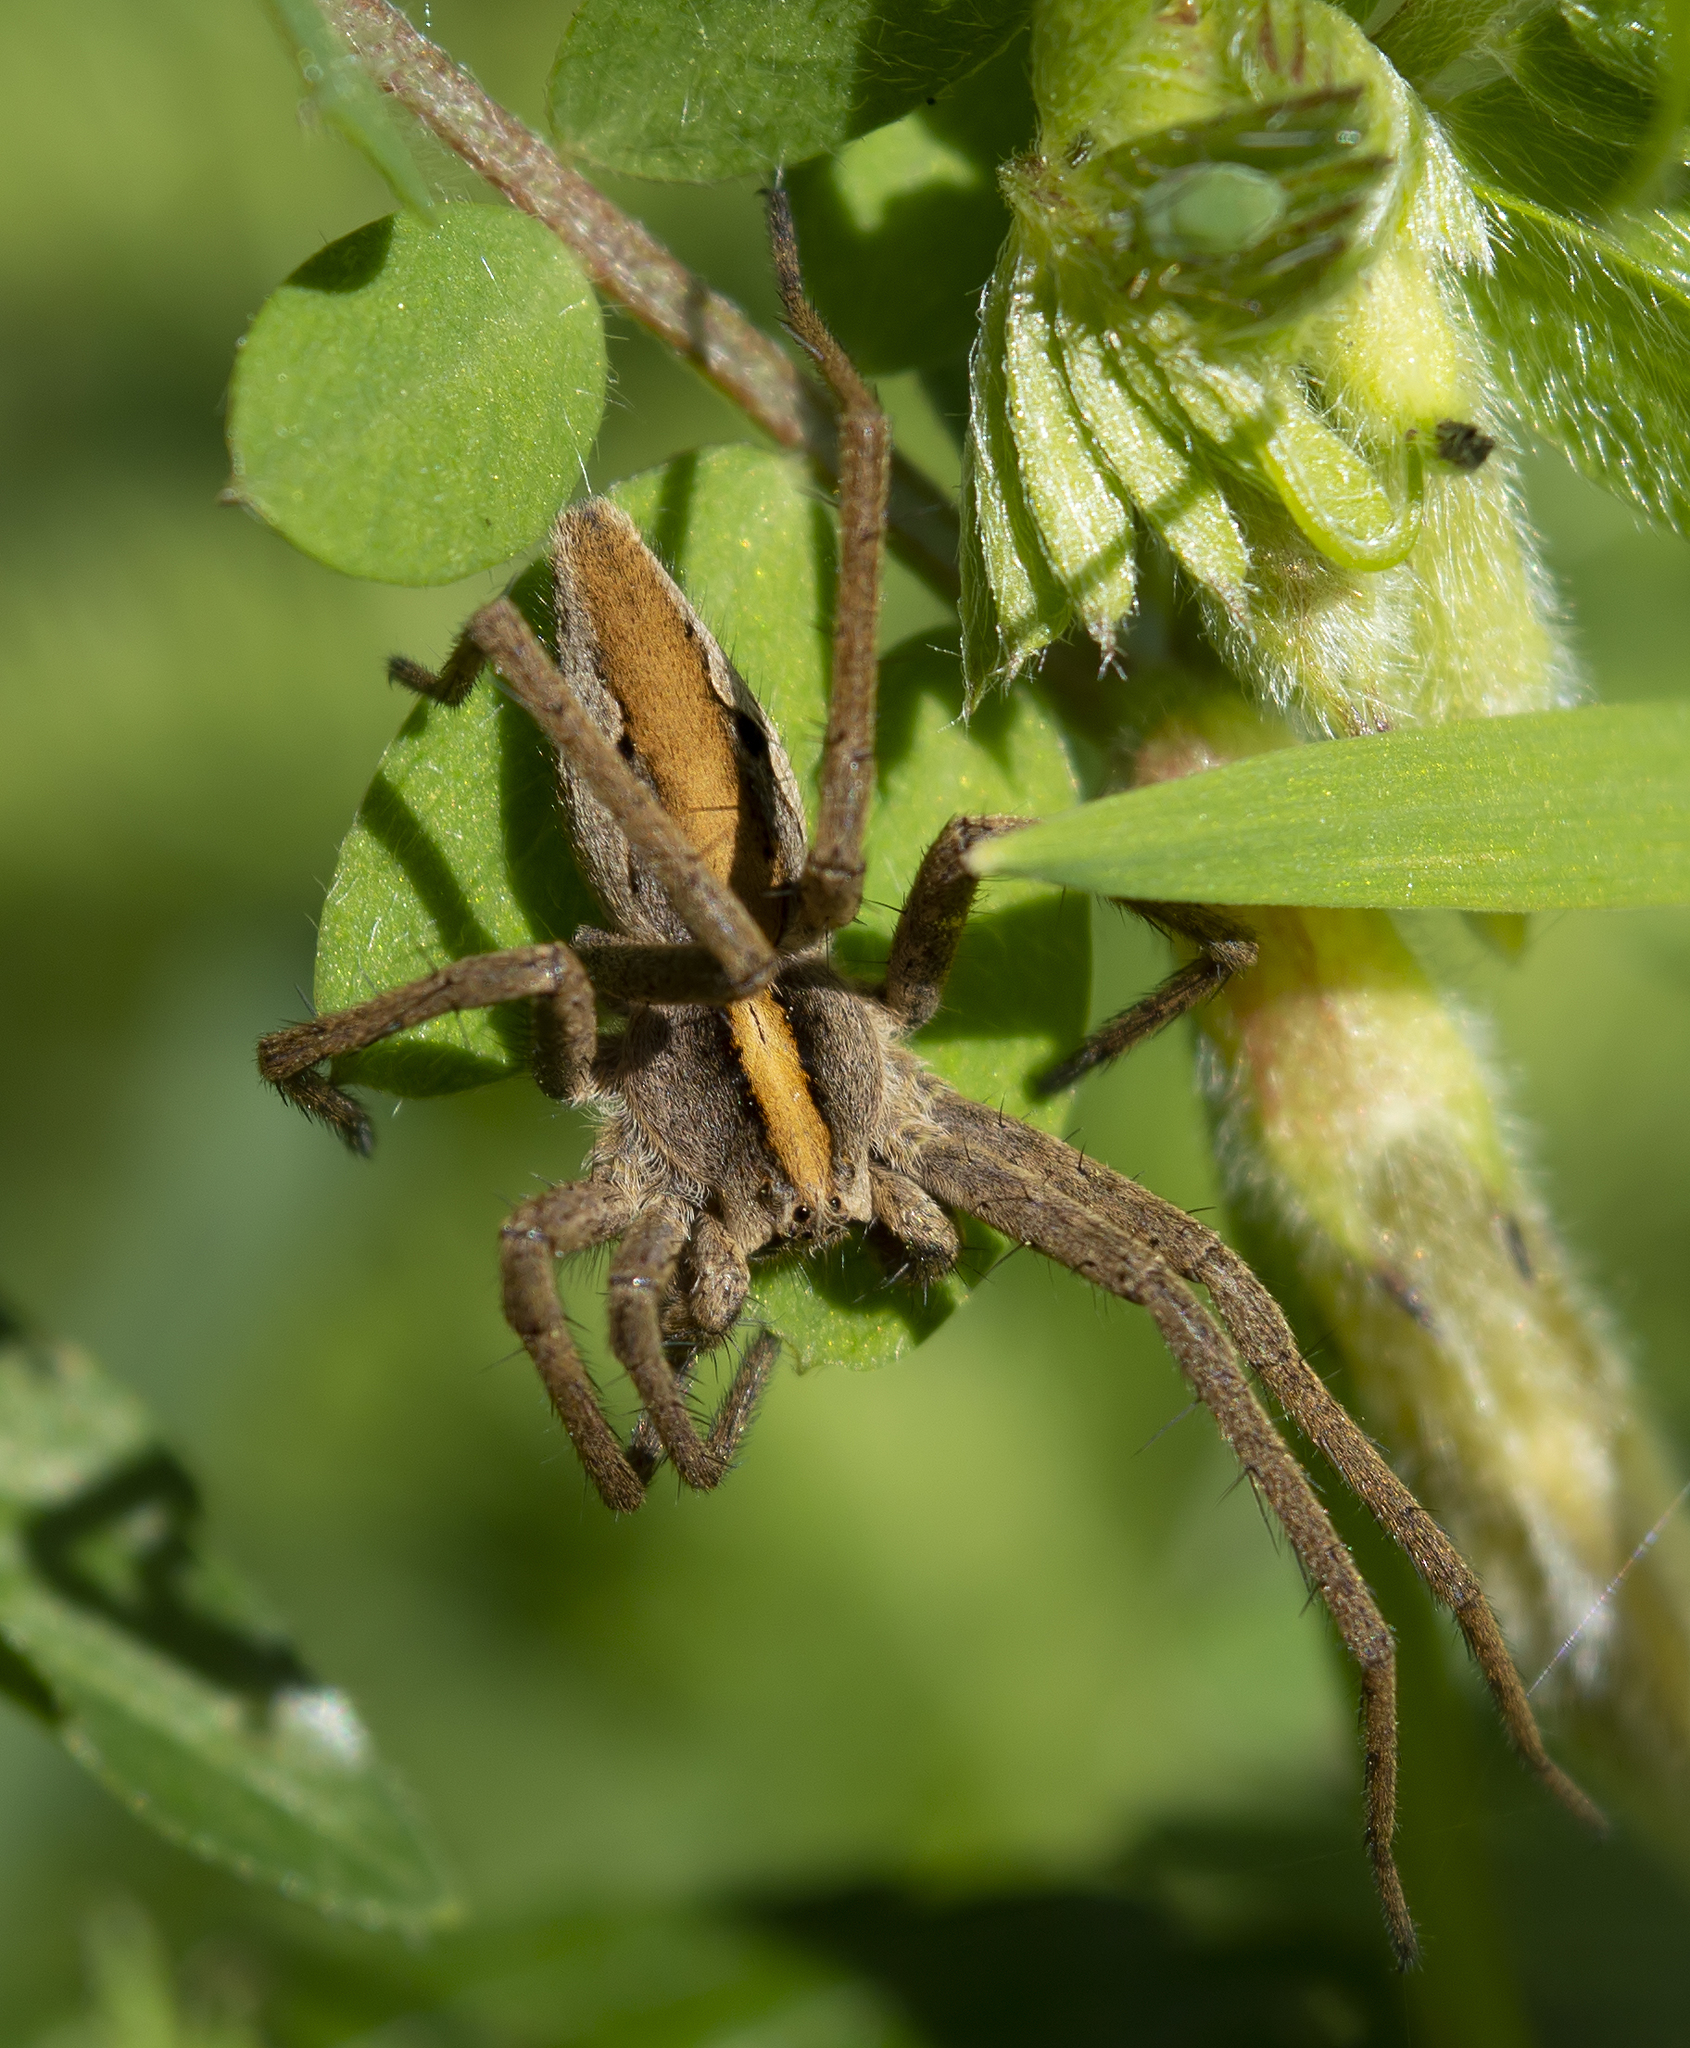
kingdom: Animalia
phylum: Arthropoda
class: Arachnida
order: Araneae
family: Pisauridae
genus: Pisaura
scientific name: Pisaura mirabilis
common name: Tent spider
